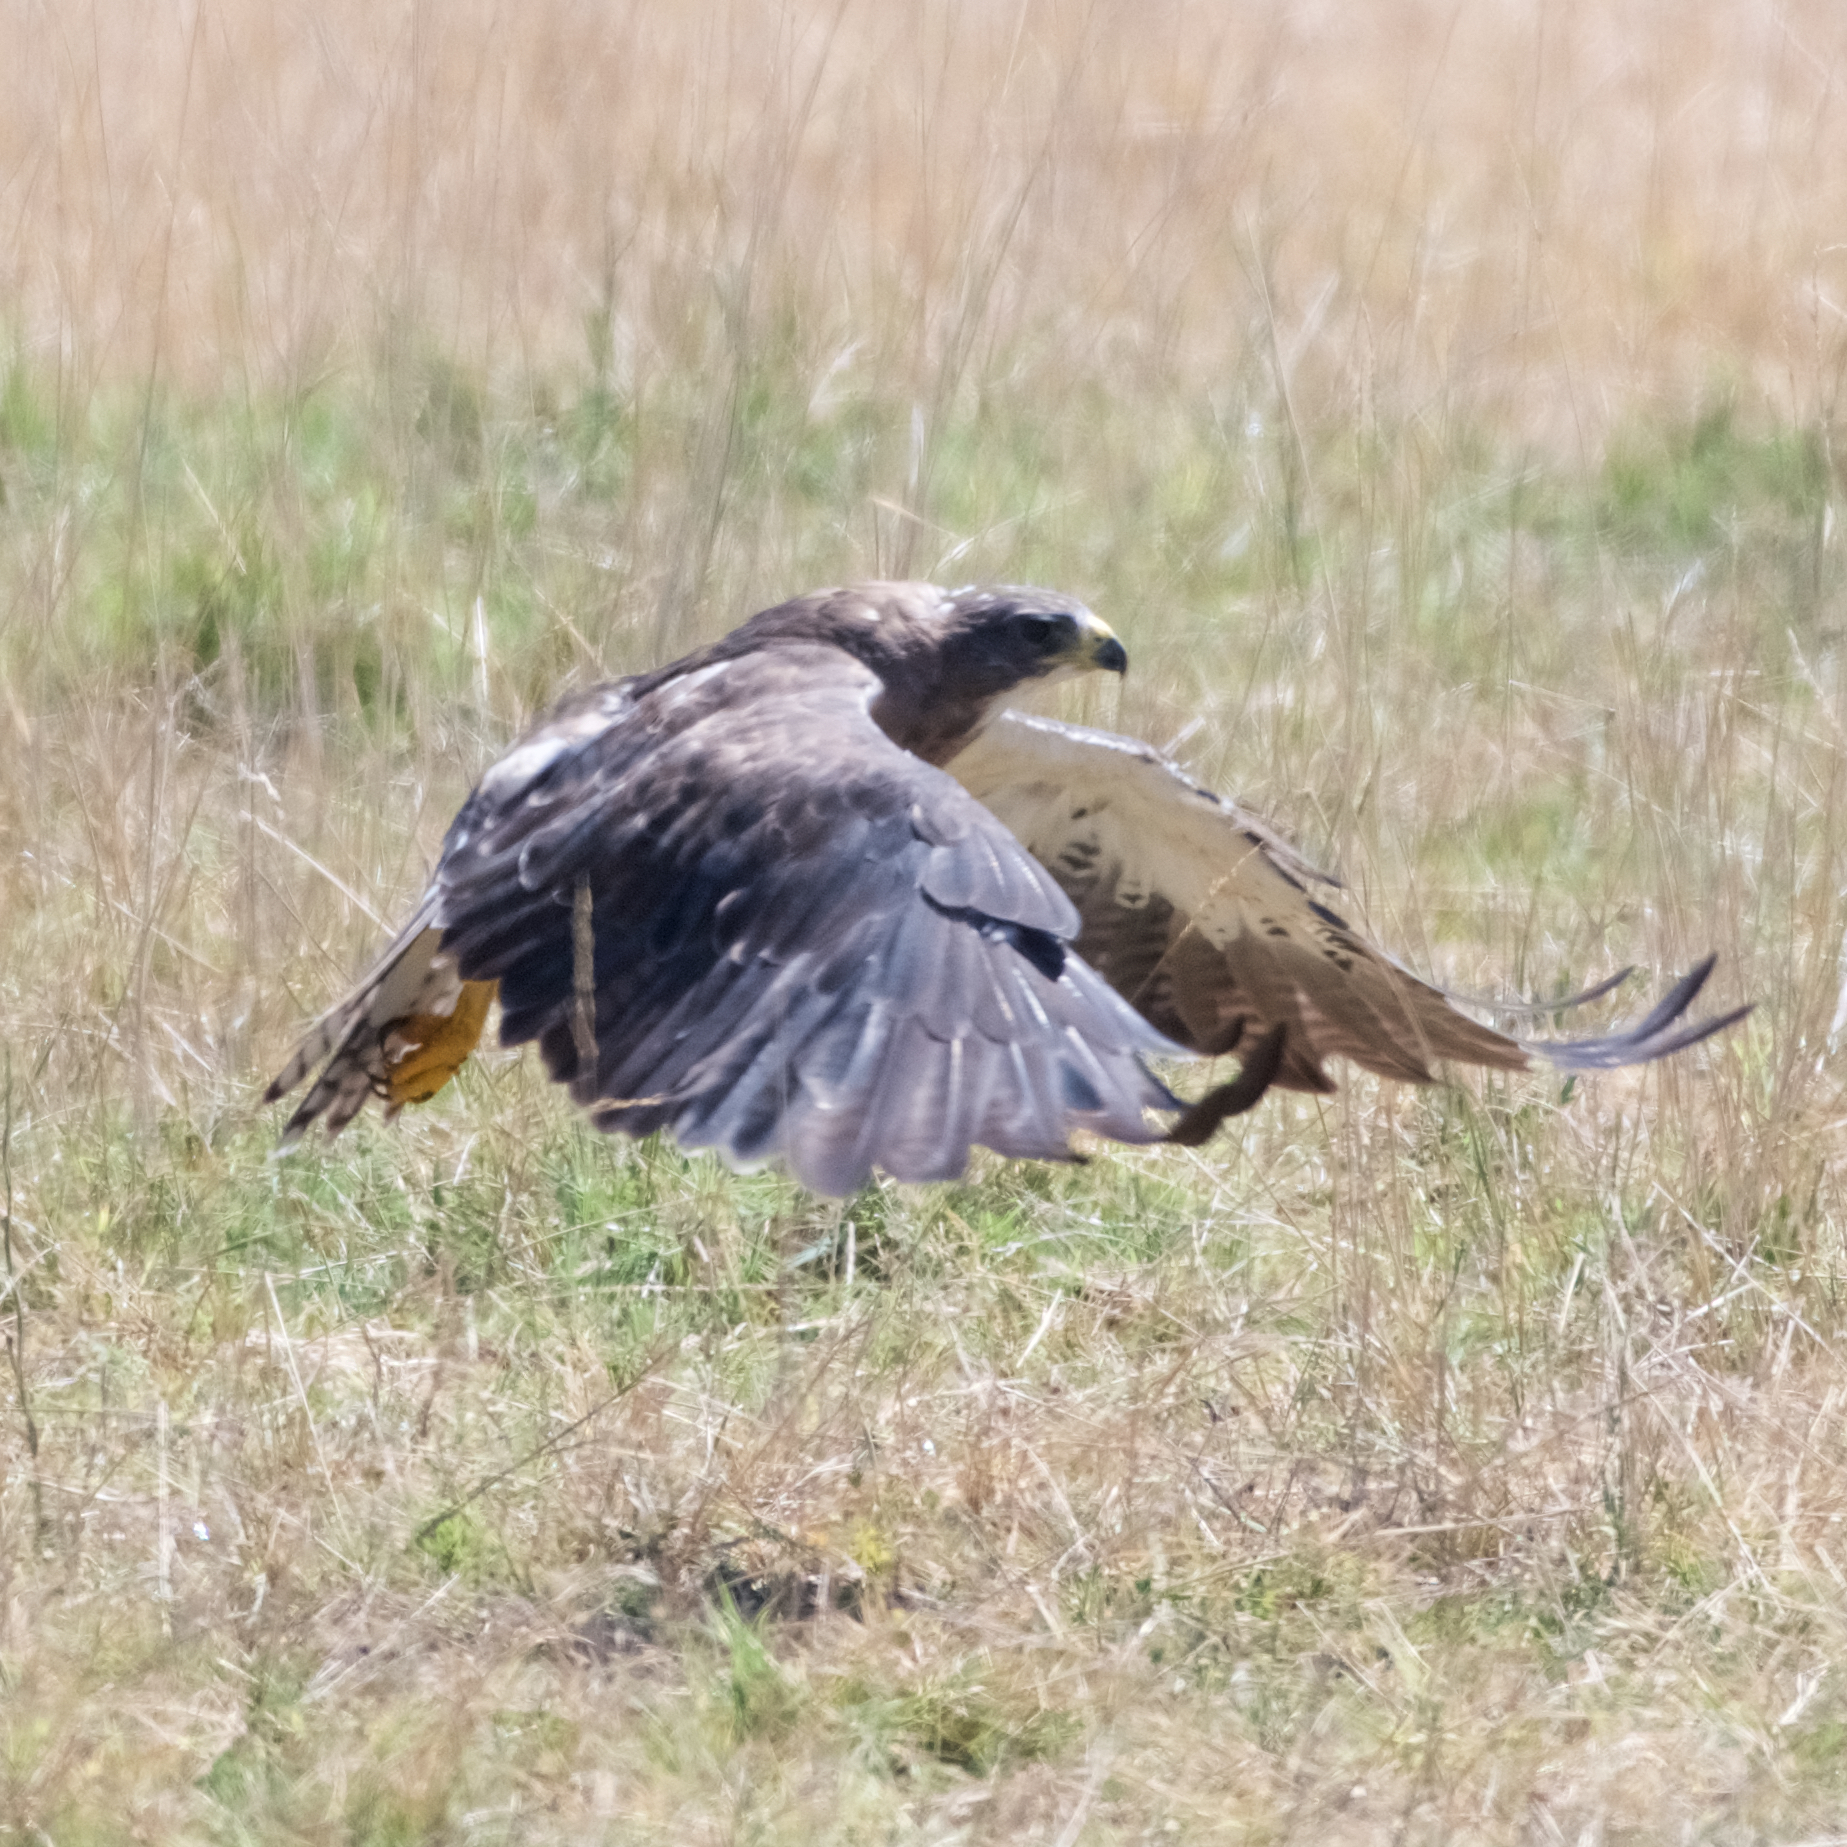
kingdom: Animalia
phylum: Chordata
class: Aves
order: Accipitriformes
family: Accipitridae
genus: Buteo
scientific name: Buteo swainsoni
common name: Swainson's hawk
